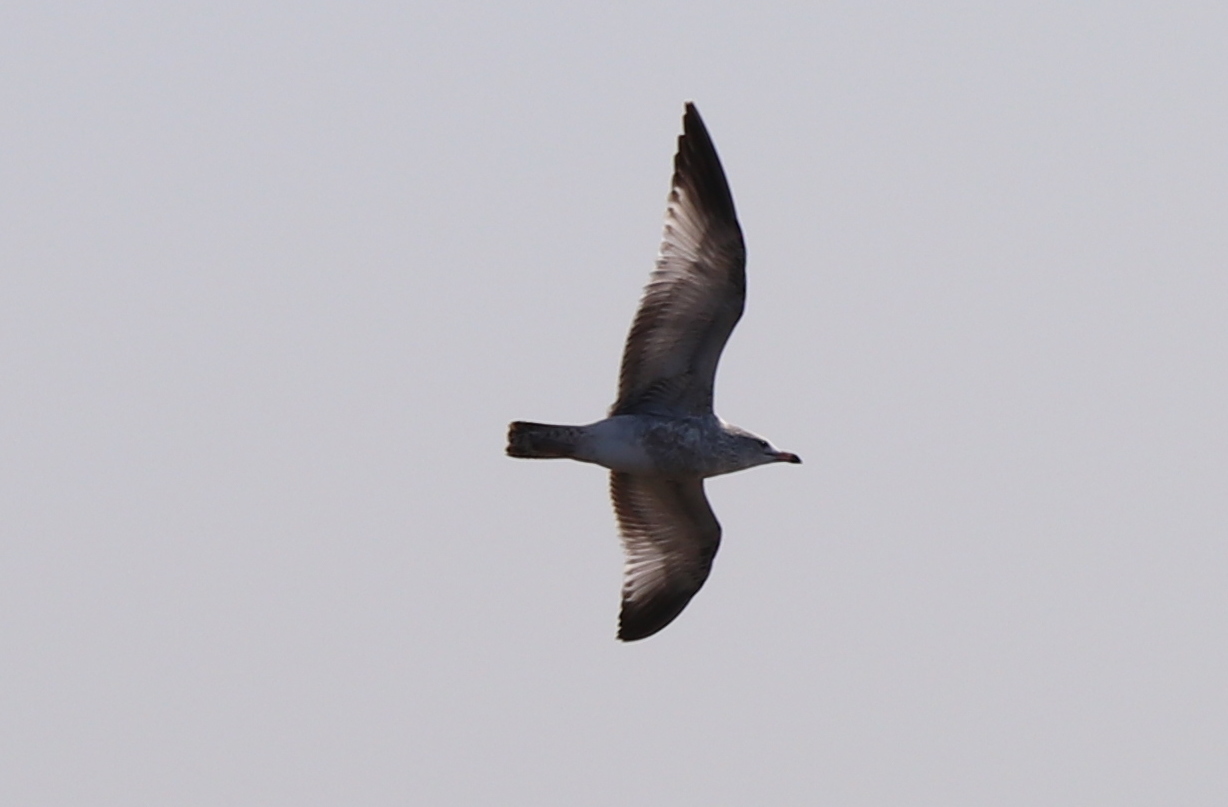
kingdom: Animalia
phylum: Chordata
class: Aves
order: Charadriiformes
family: Laridae
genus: Larus
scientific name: Larus argentatus
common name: Herring gull
